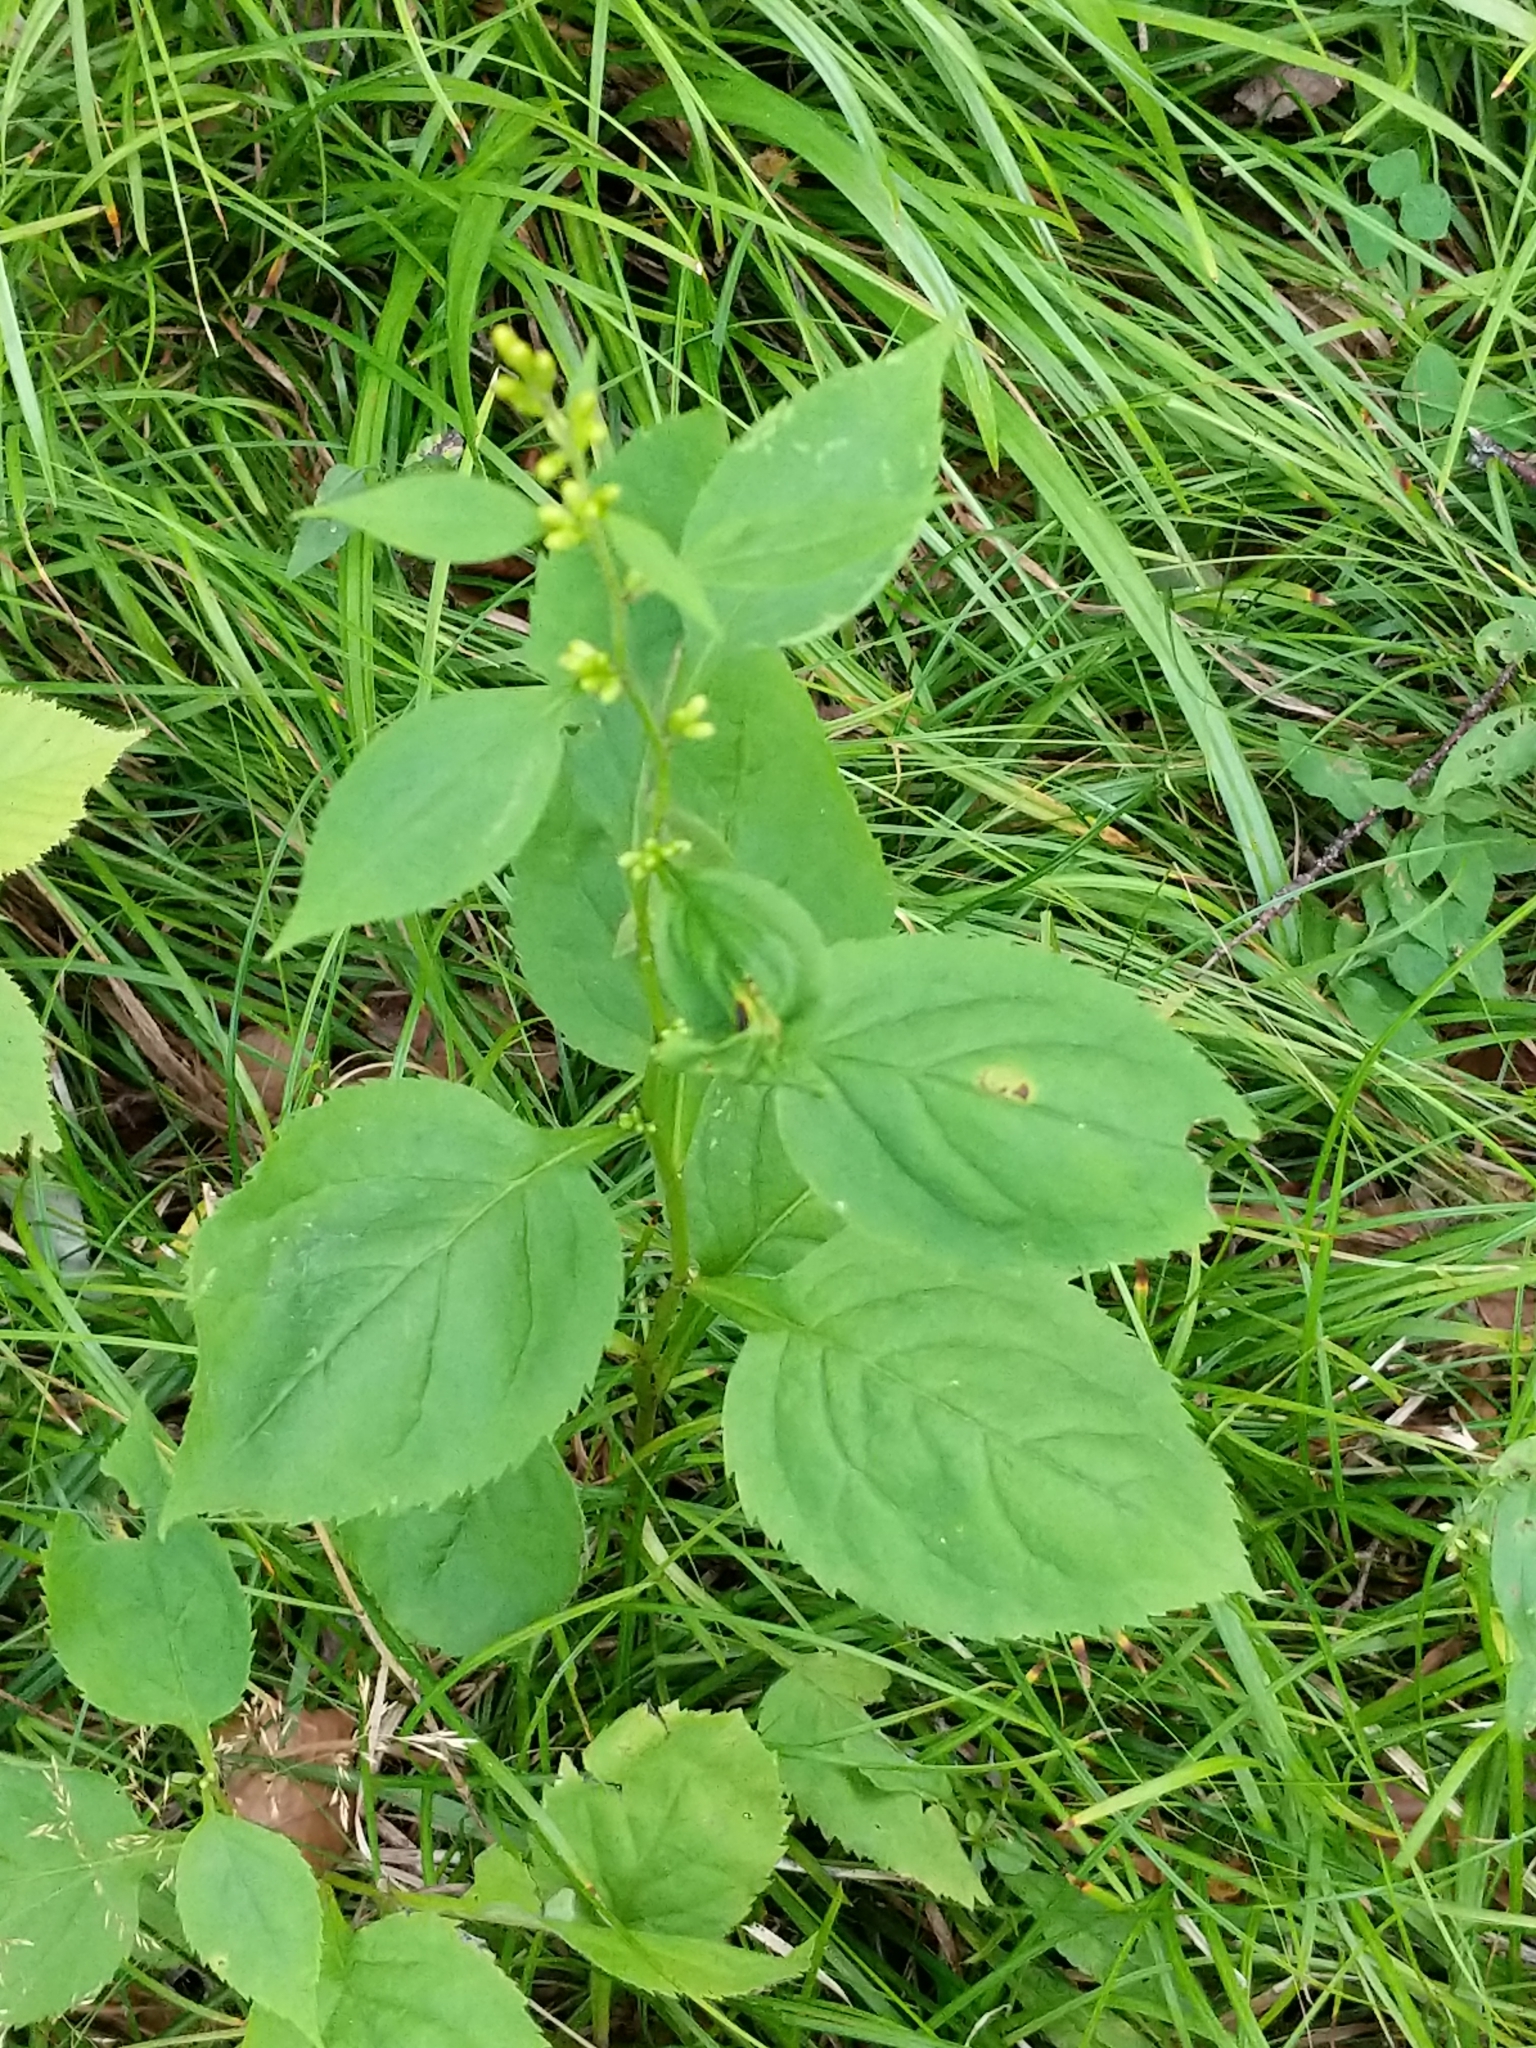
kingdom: Plantae
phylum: Tracheophyta
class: Magnoliopsida
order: Asterales
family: Asteraceae
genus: Solidago
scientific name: Solidago flexicaulis
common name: Zig-zag goldenrod
